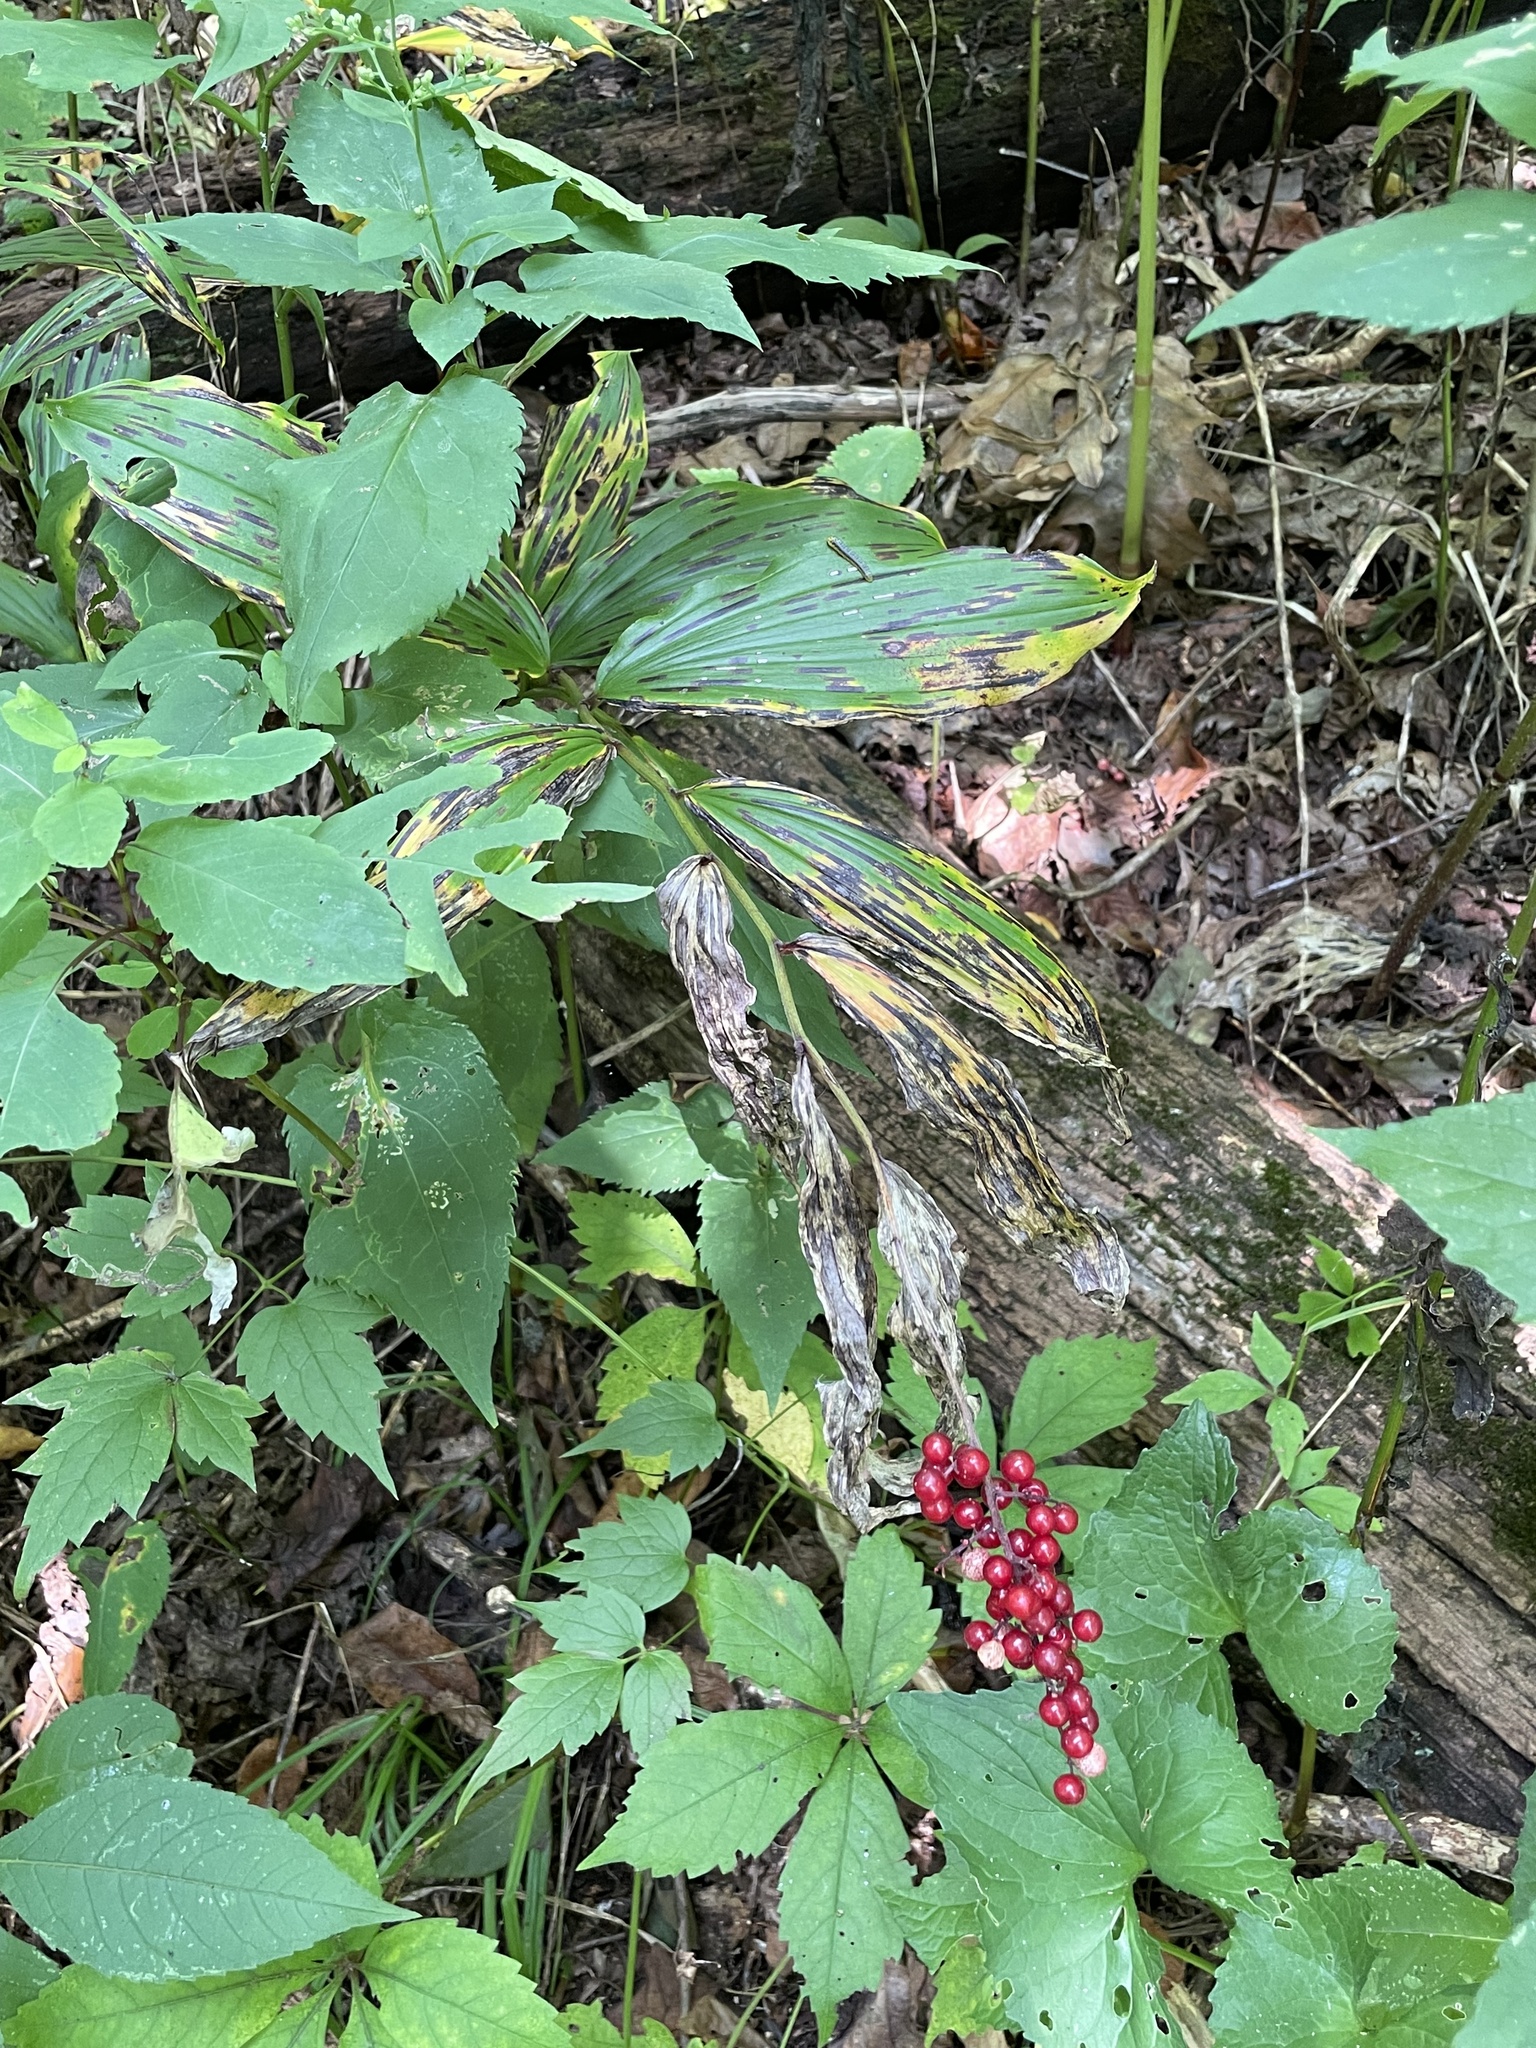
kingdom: Plantae
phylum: Tracheophyta
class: Liliopsida
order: Asparagales
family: Asparagaceae
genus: Maianthemum
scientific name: Maianthemum racemosum
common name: False spikenard
